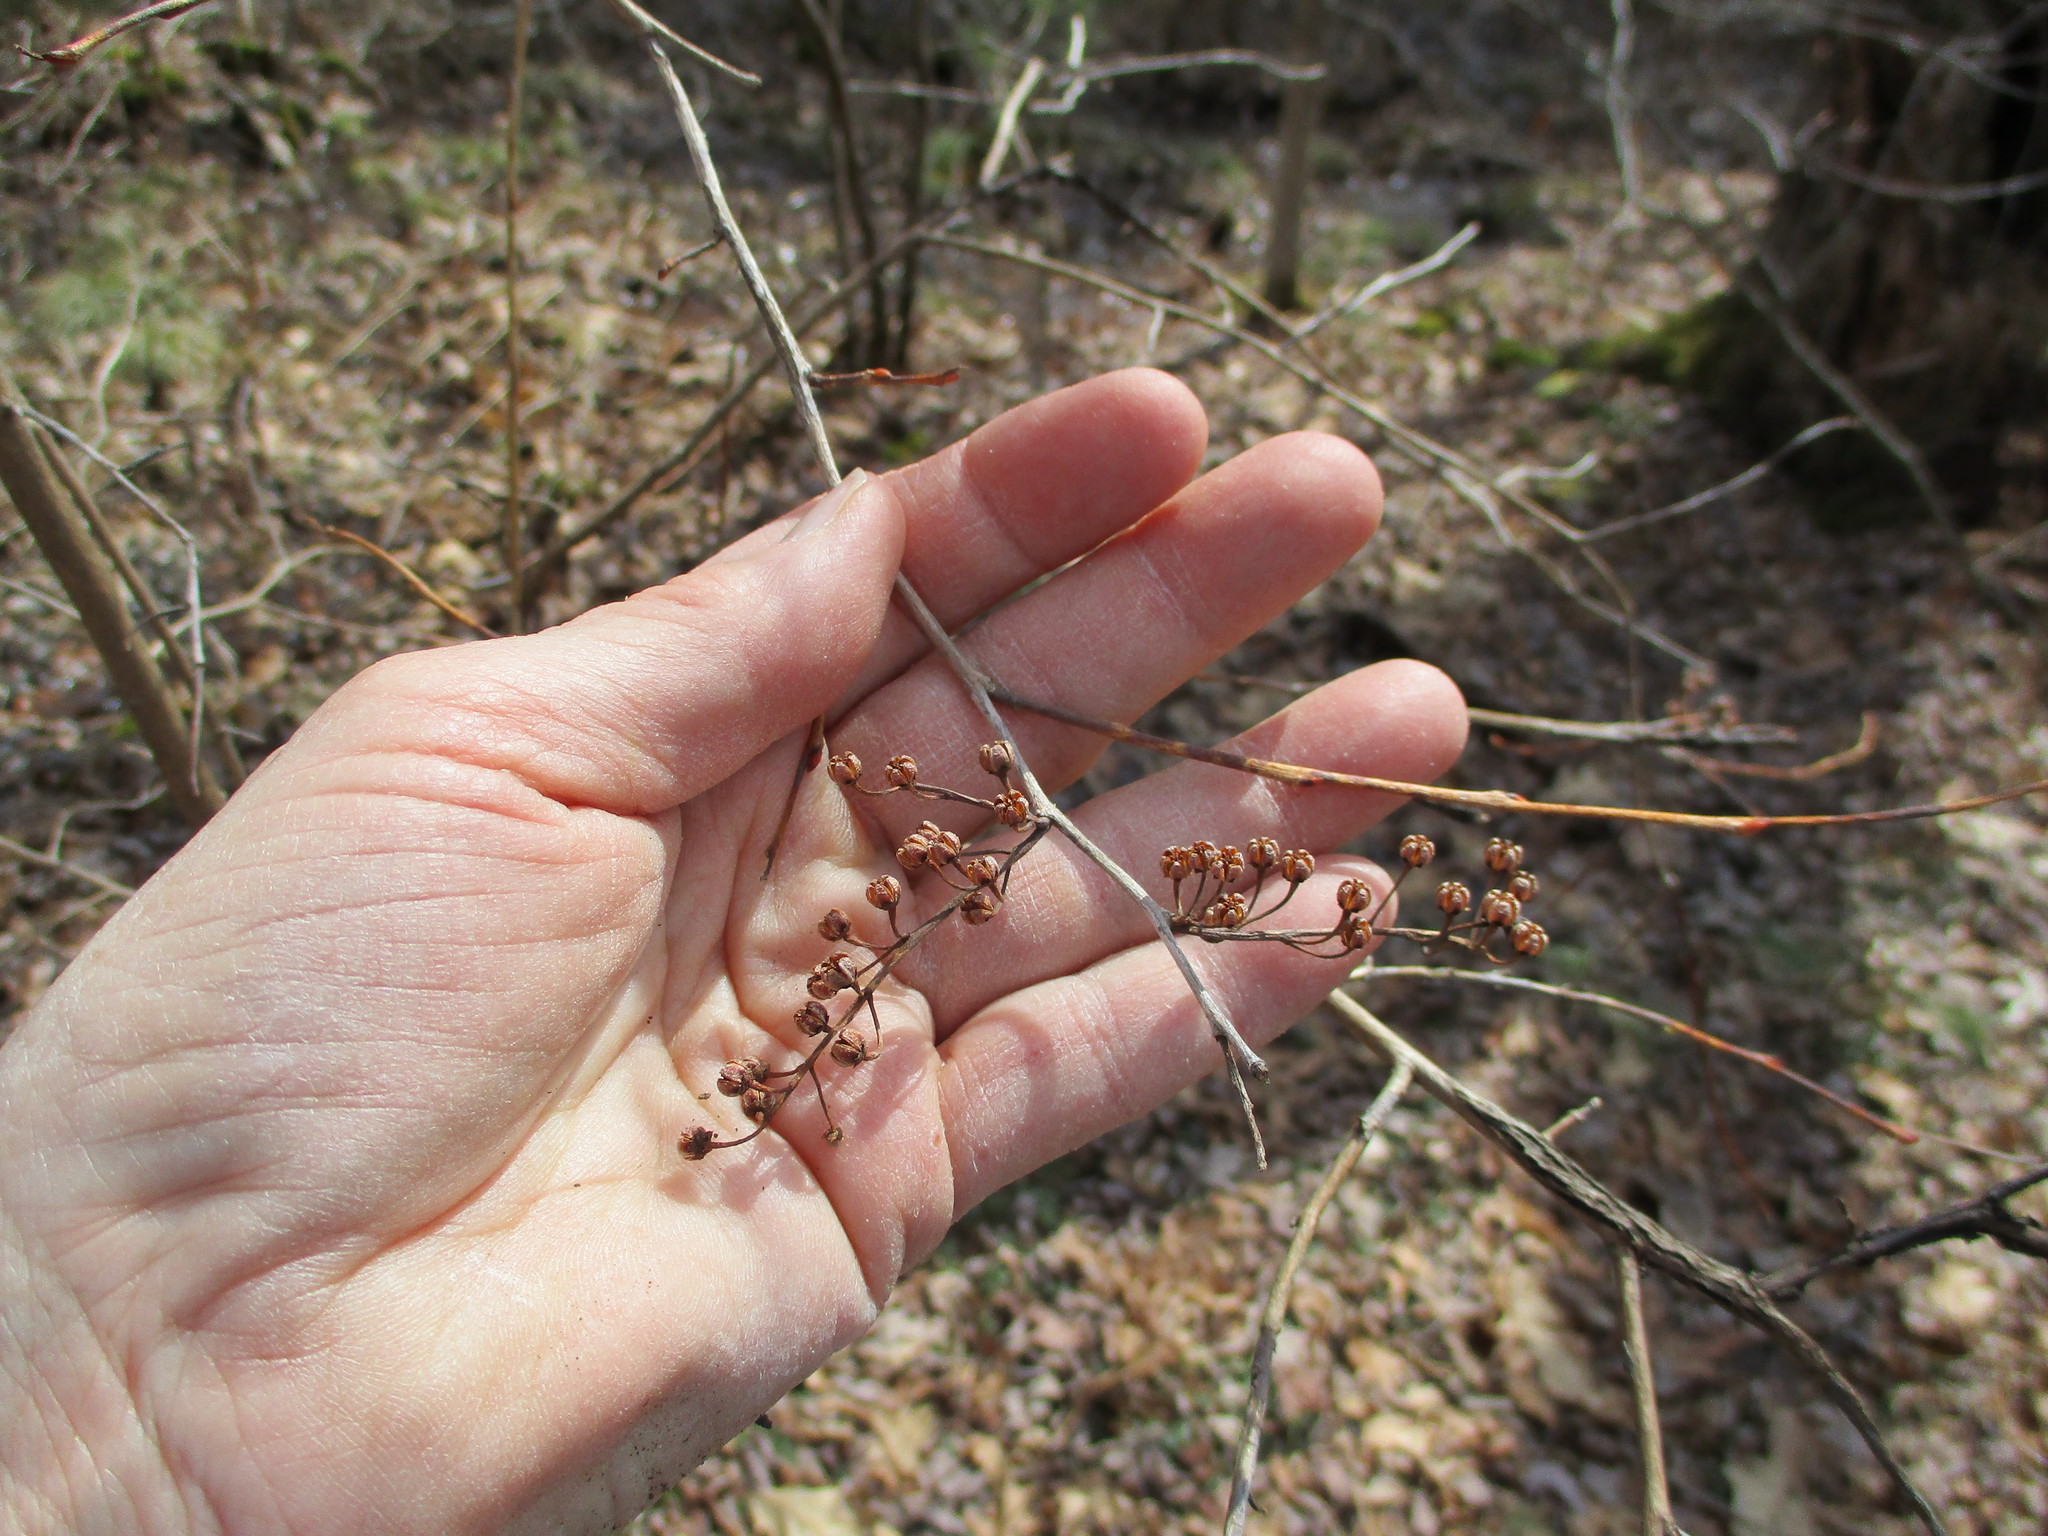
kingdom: Plantae
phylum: Tracheophyta
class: Magnoliopsida
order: Ericales
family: Ericaceae
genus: Lyonia
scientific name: Lyonia ligustrina
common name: Maleberry
